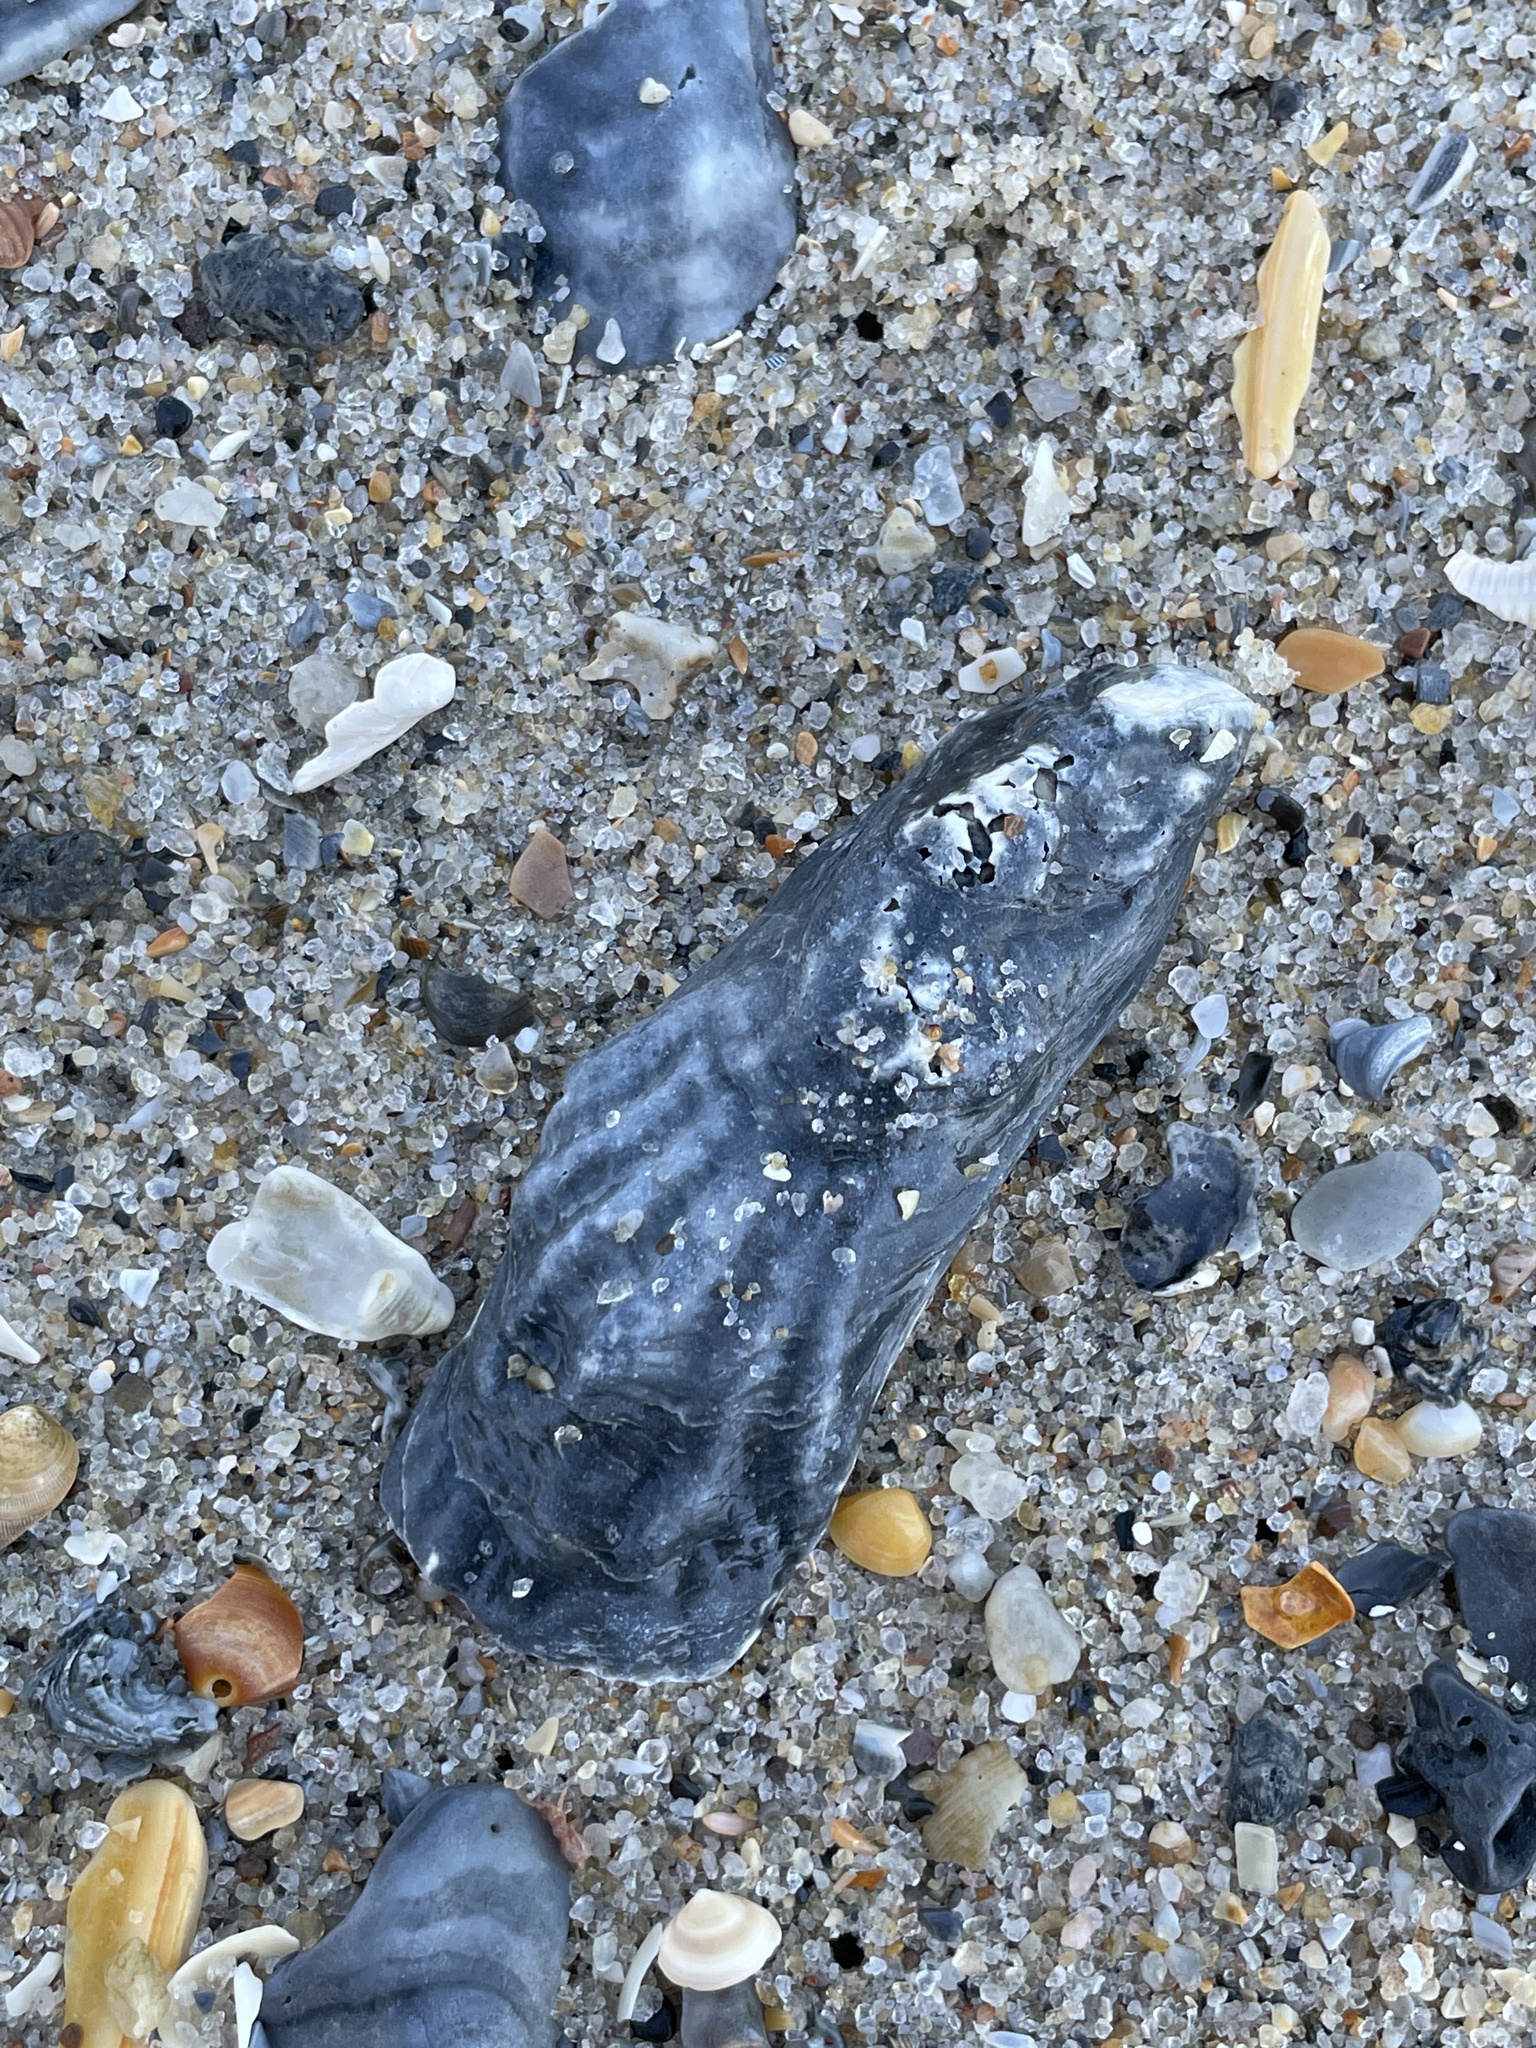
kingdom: Animalia
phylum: Mollusca
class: Bivalvia
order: Ostreida
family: Ostreidae
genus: Crassostrea
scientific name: Crassostrea virginica
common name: American oyster
